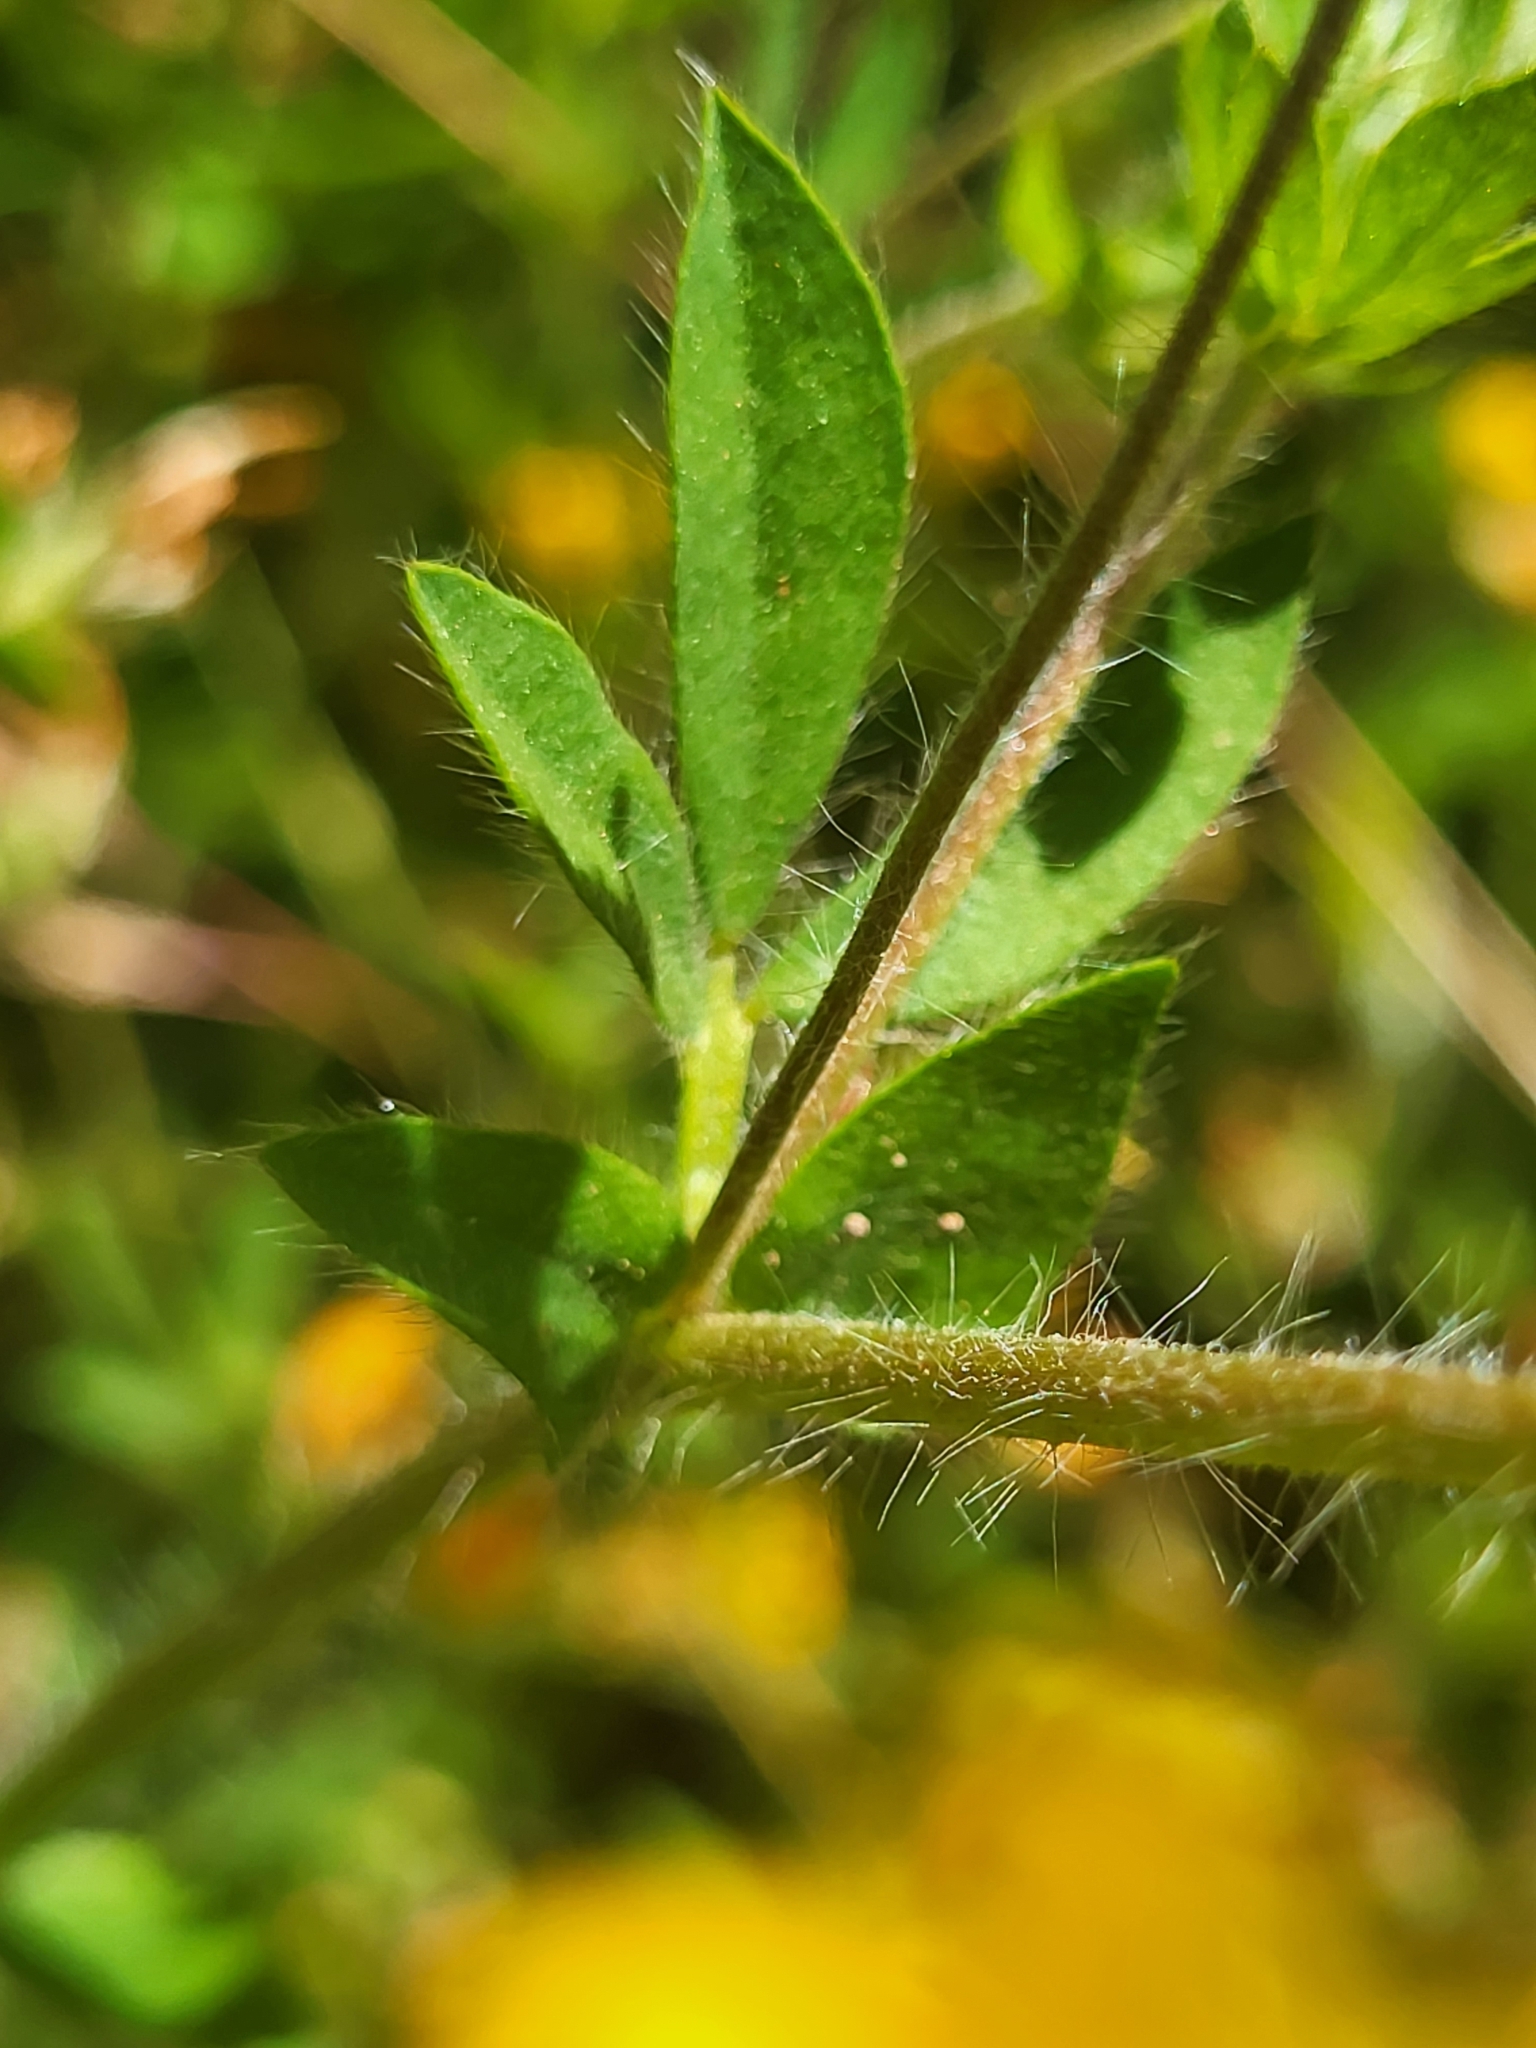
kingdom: Plantae
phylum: Tracheophyta
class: Magnoliopsida
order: Fabales
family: Fabaceae
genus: Lotus
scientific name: Lotus hispidus
